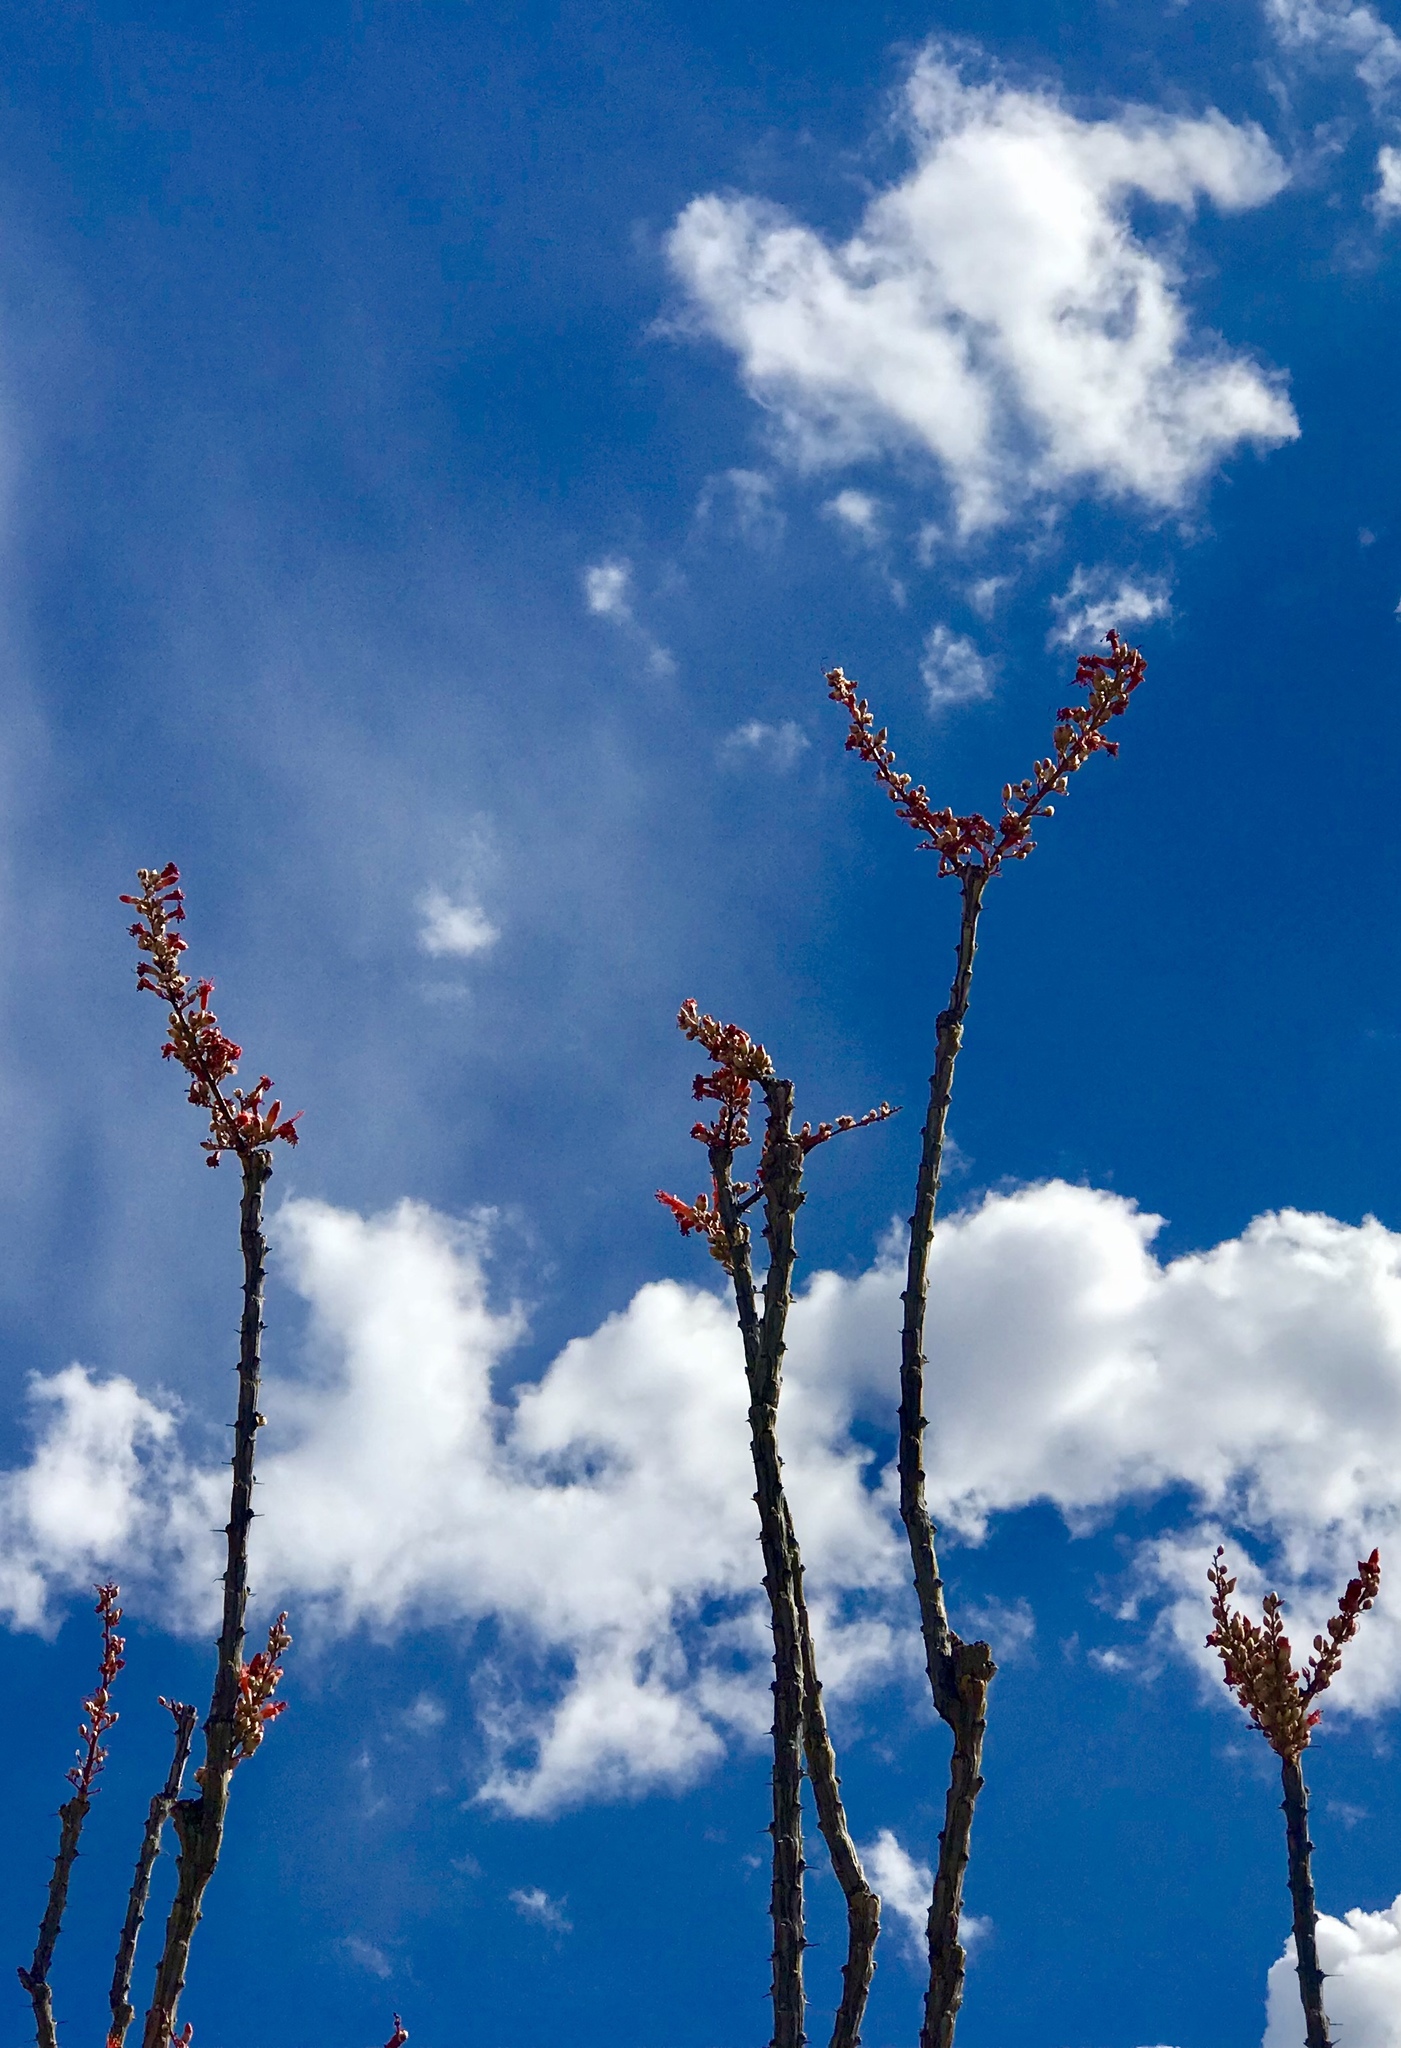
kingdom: Plantae
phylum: Tracheophyta
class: Magnoliopsida
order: Ericales
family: Fouquieriaceae
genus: Fouquieria
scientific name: Fouquieria splendens
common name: Vine-cactus
